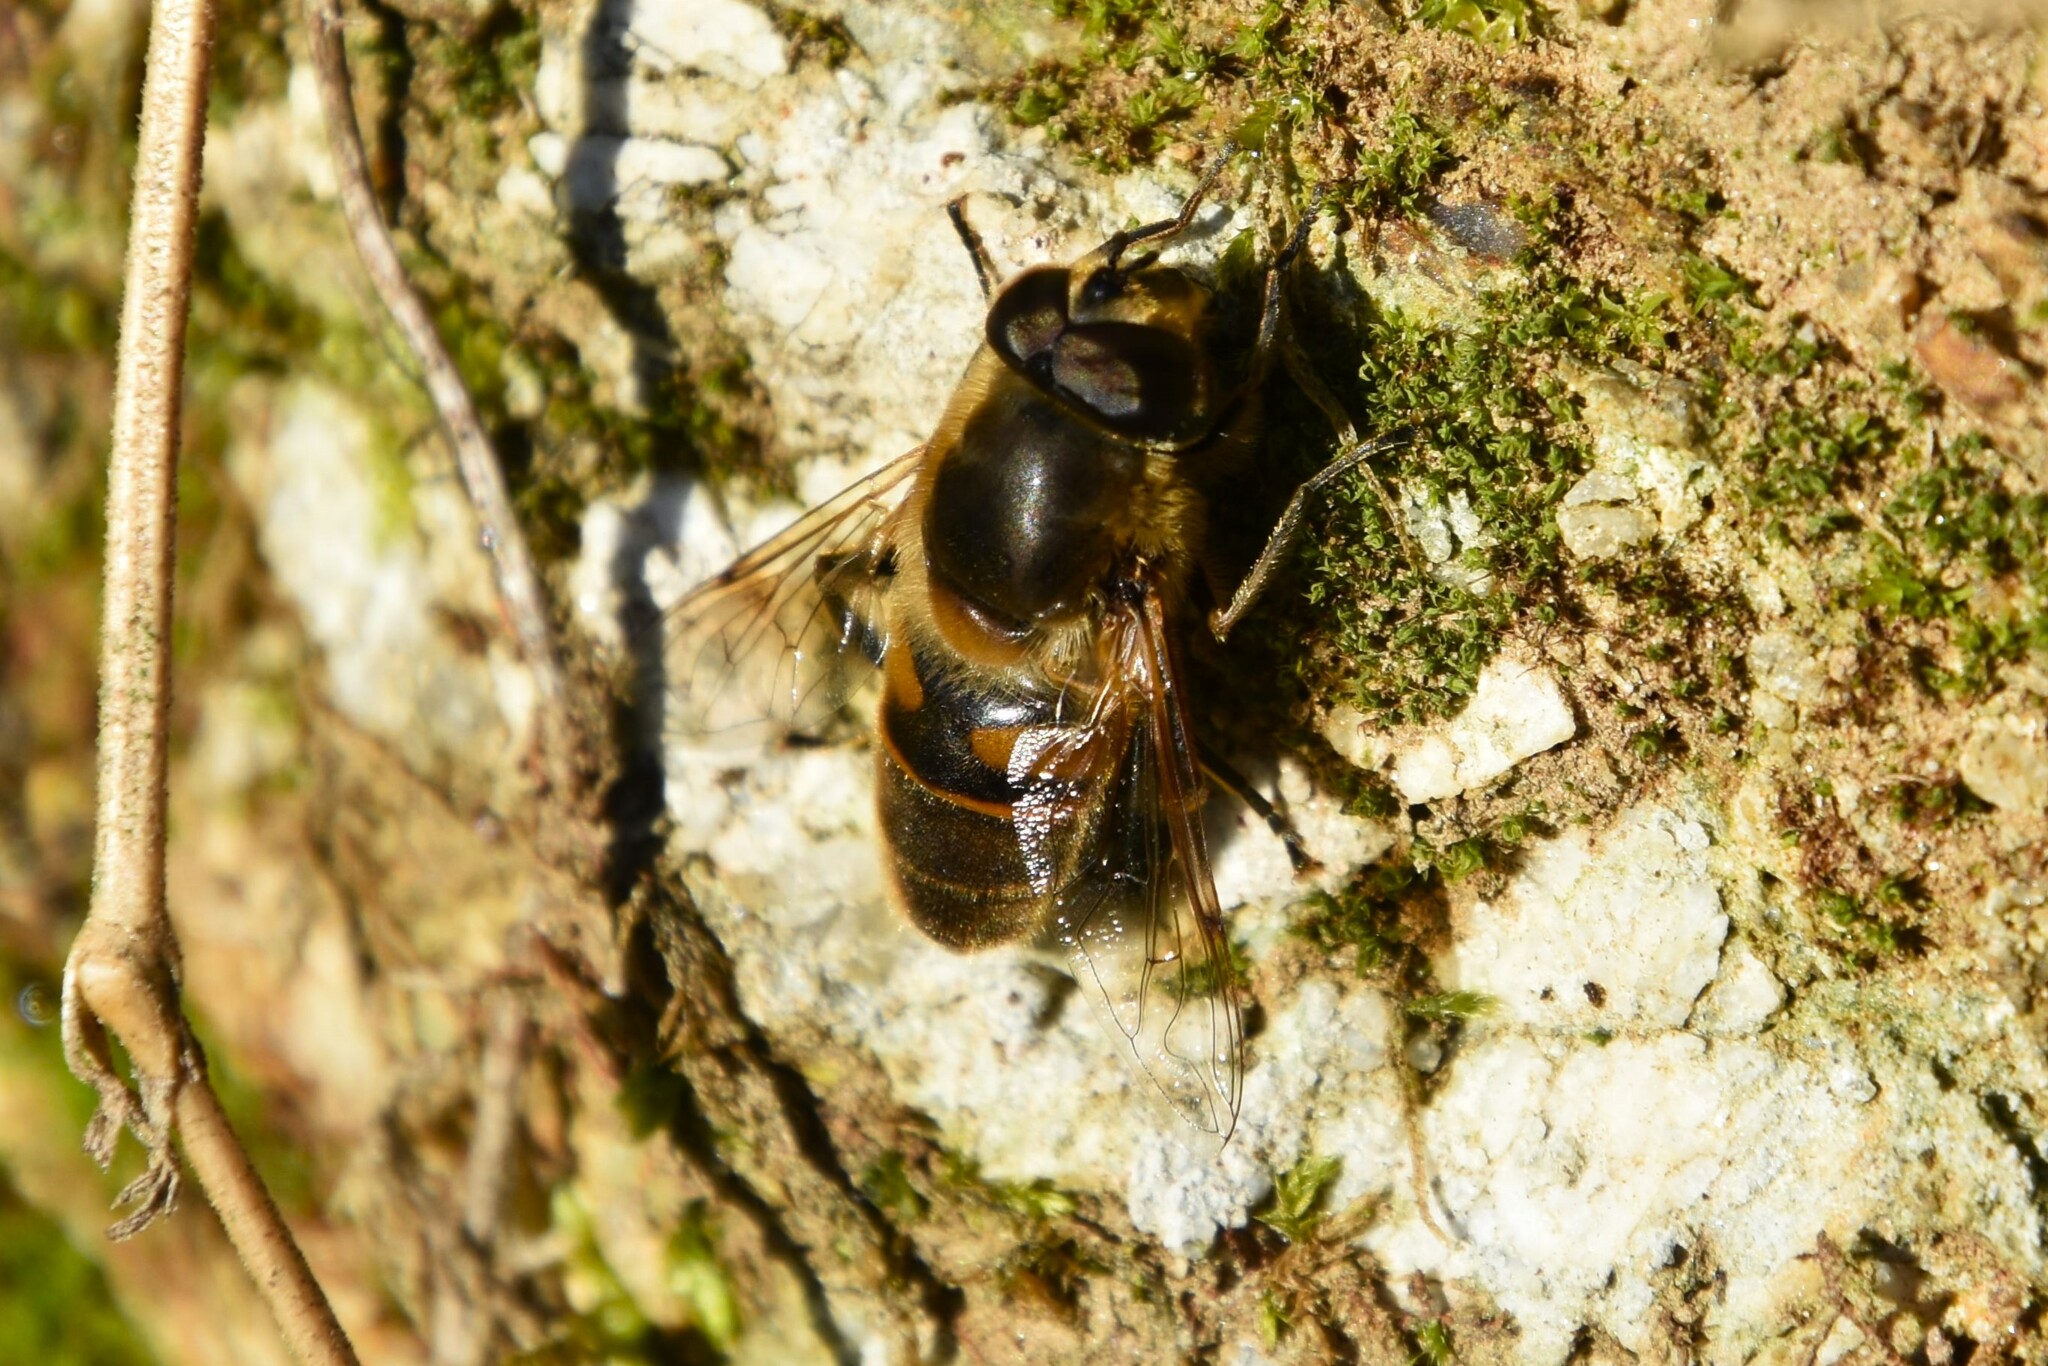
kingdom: Animalia
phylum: Arthropoda
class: Insecta
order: Diptera
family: Syrphidae
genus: Eristalis
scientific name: Eristalis tenax
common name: Drone fly
